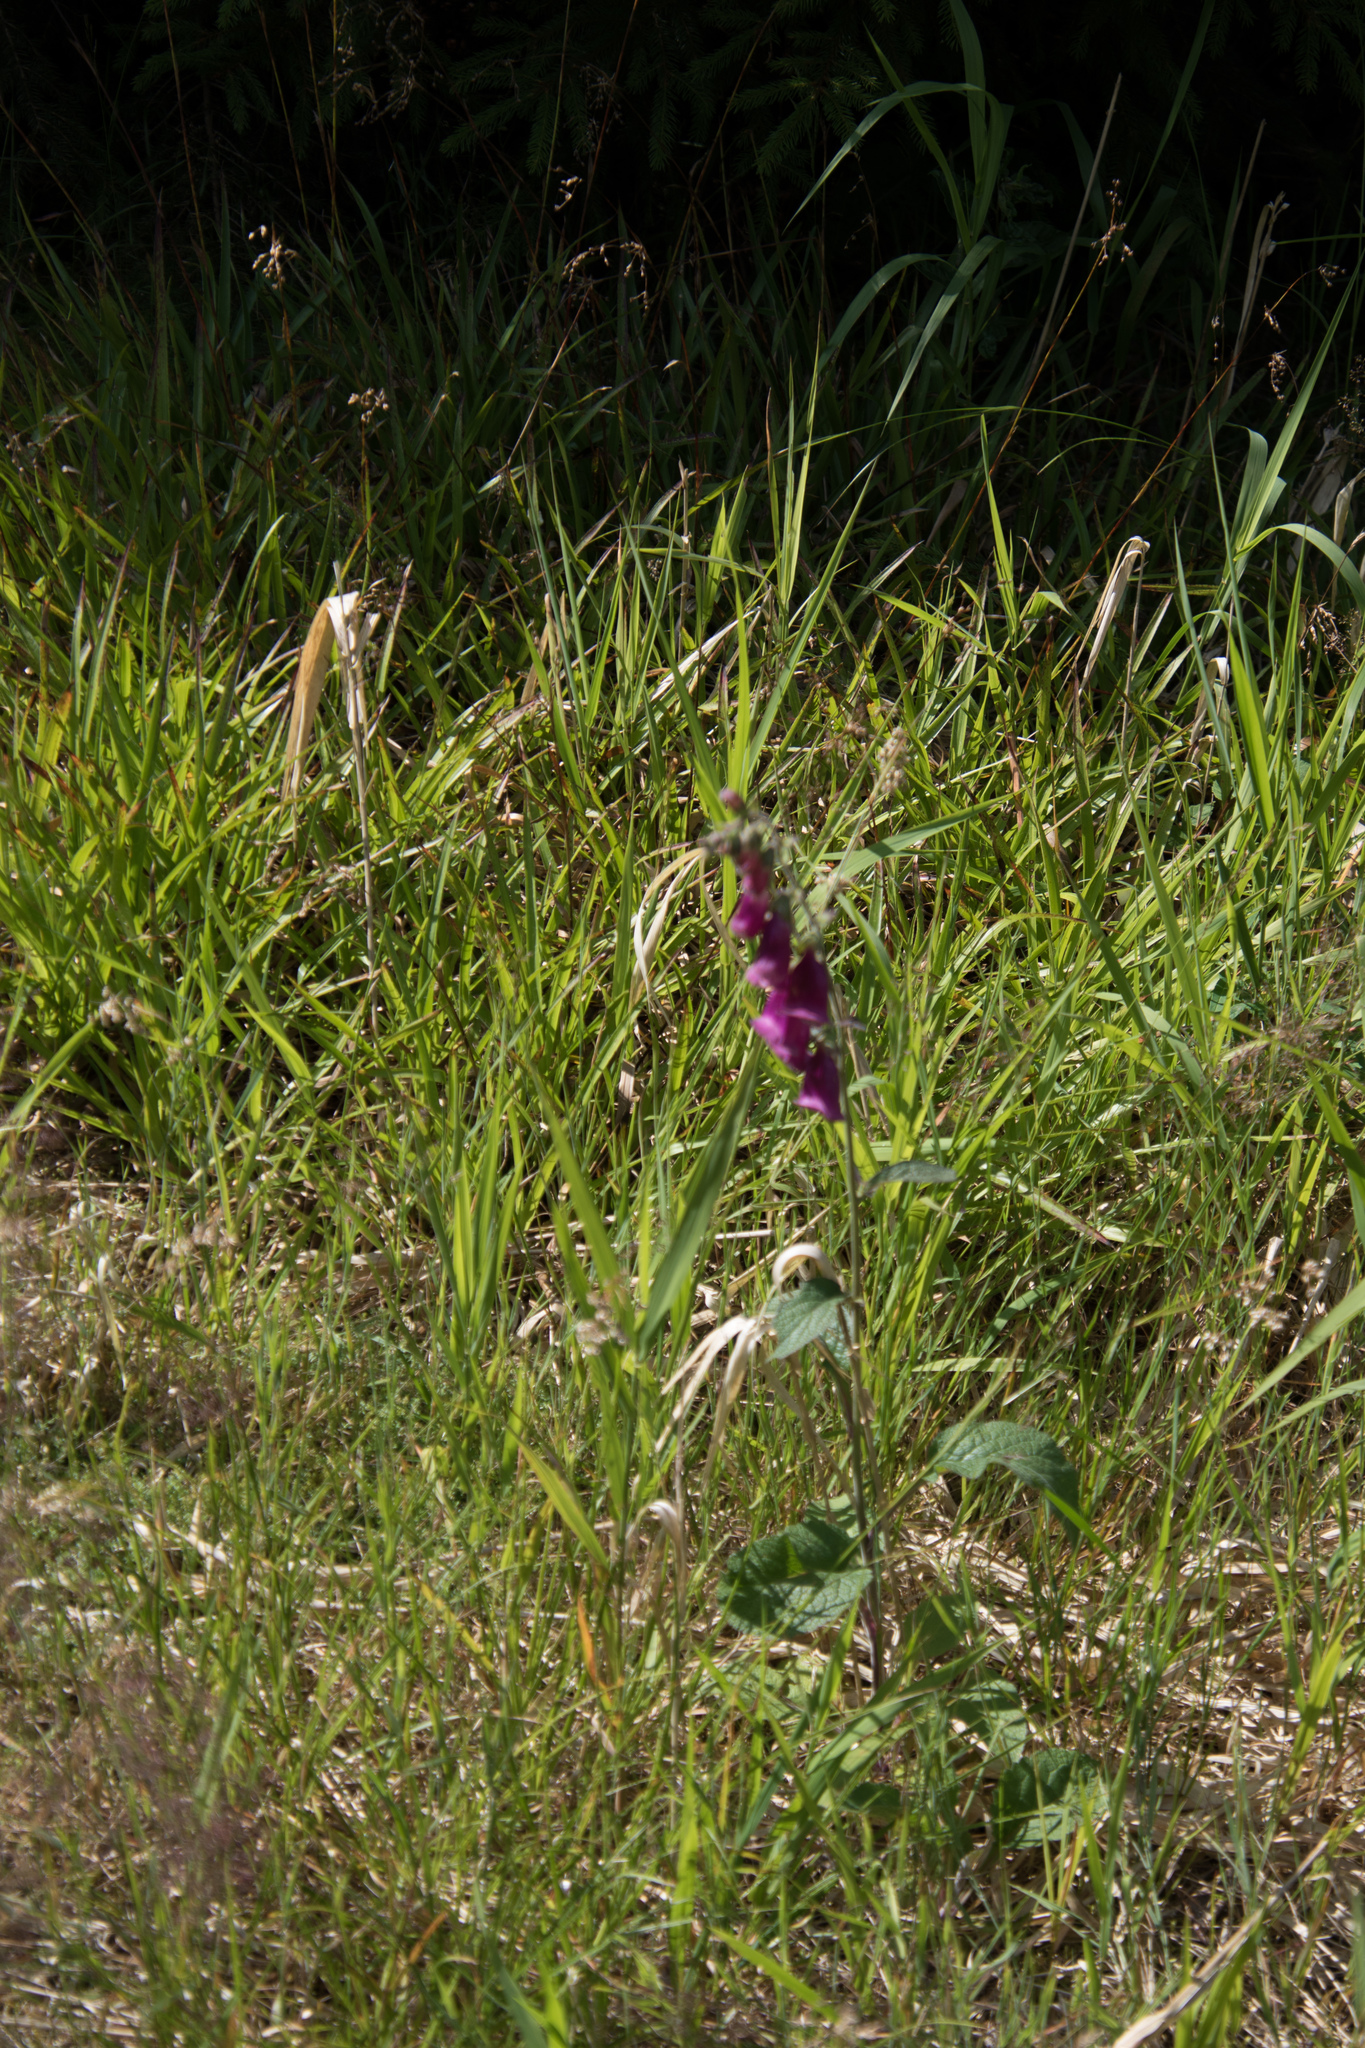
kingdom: Plantae
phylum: Tracheophyta
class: Magnoliopsida
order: Lamiales
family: Plantaginaceae
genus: Digitalis
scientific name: Digitalis purpurea
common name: Foxglove
